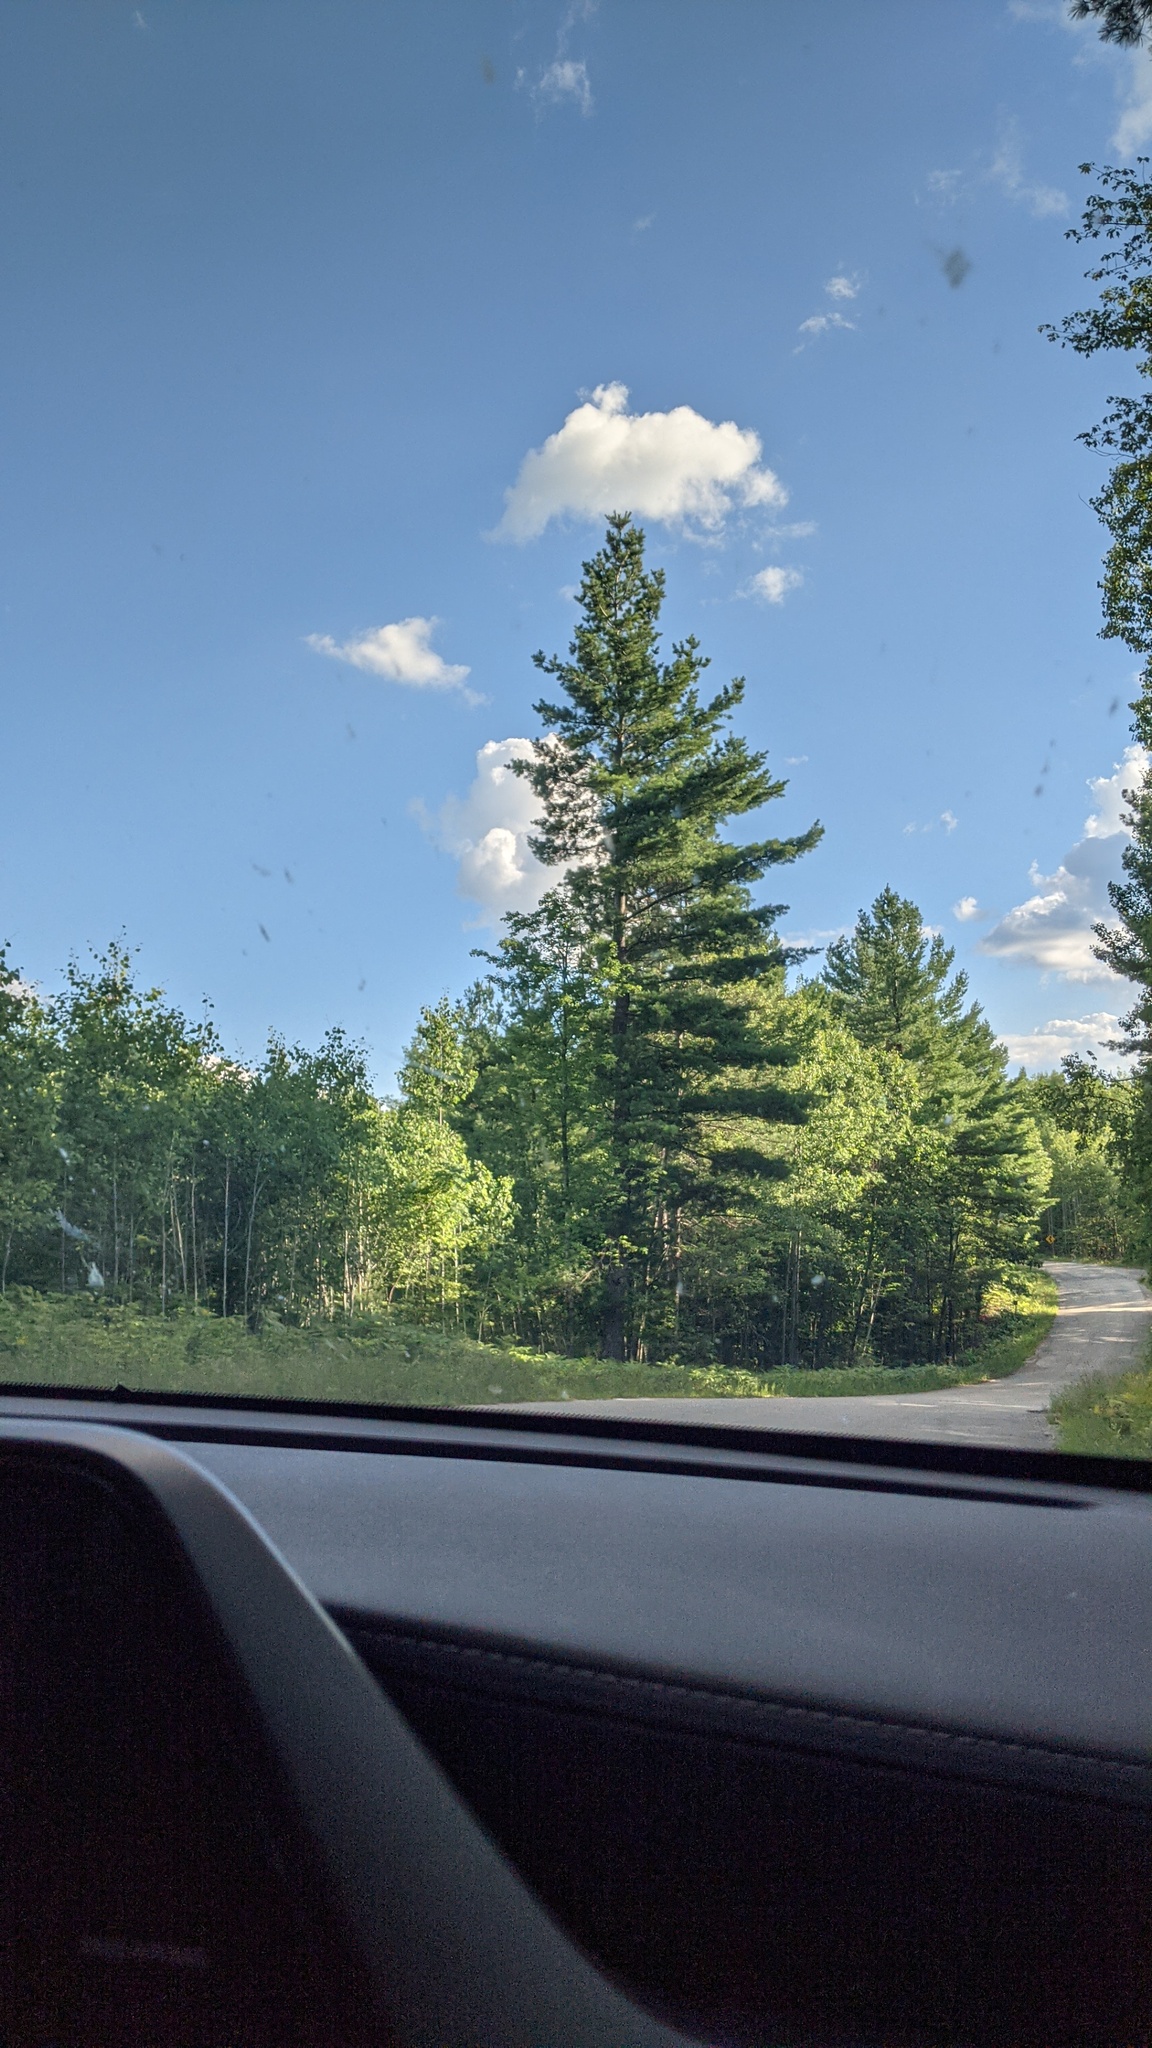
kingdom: Plantae
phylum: Tracheophyta
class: Pinopsida
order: Pinales
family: Pinaceae
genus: Pinus
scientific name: Pinus strobus
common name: Weymouth pine
